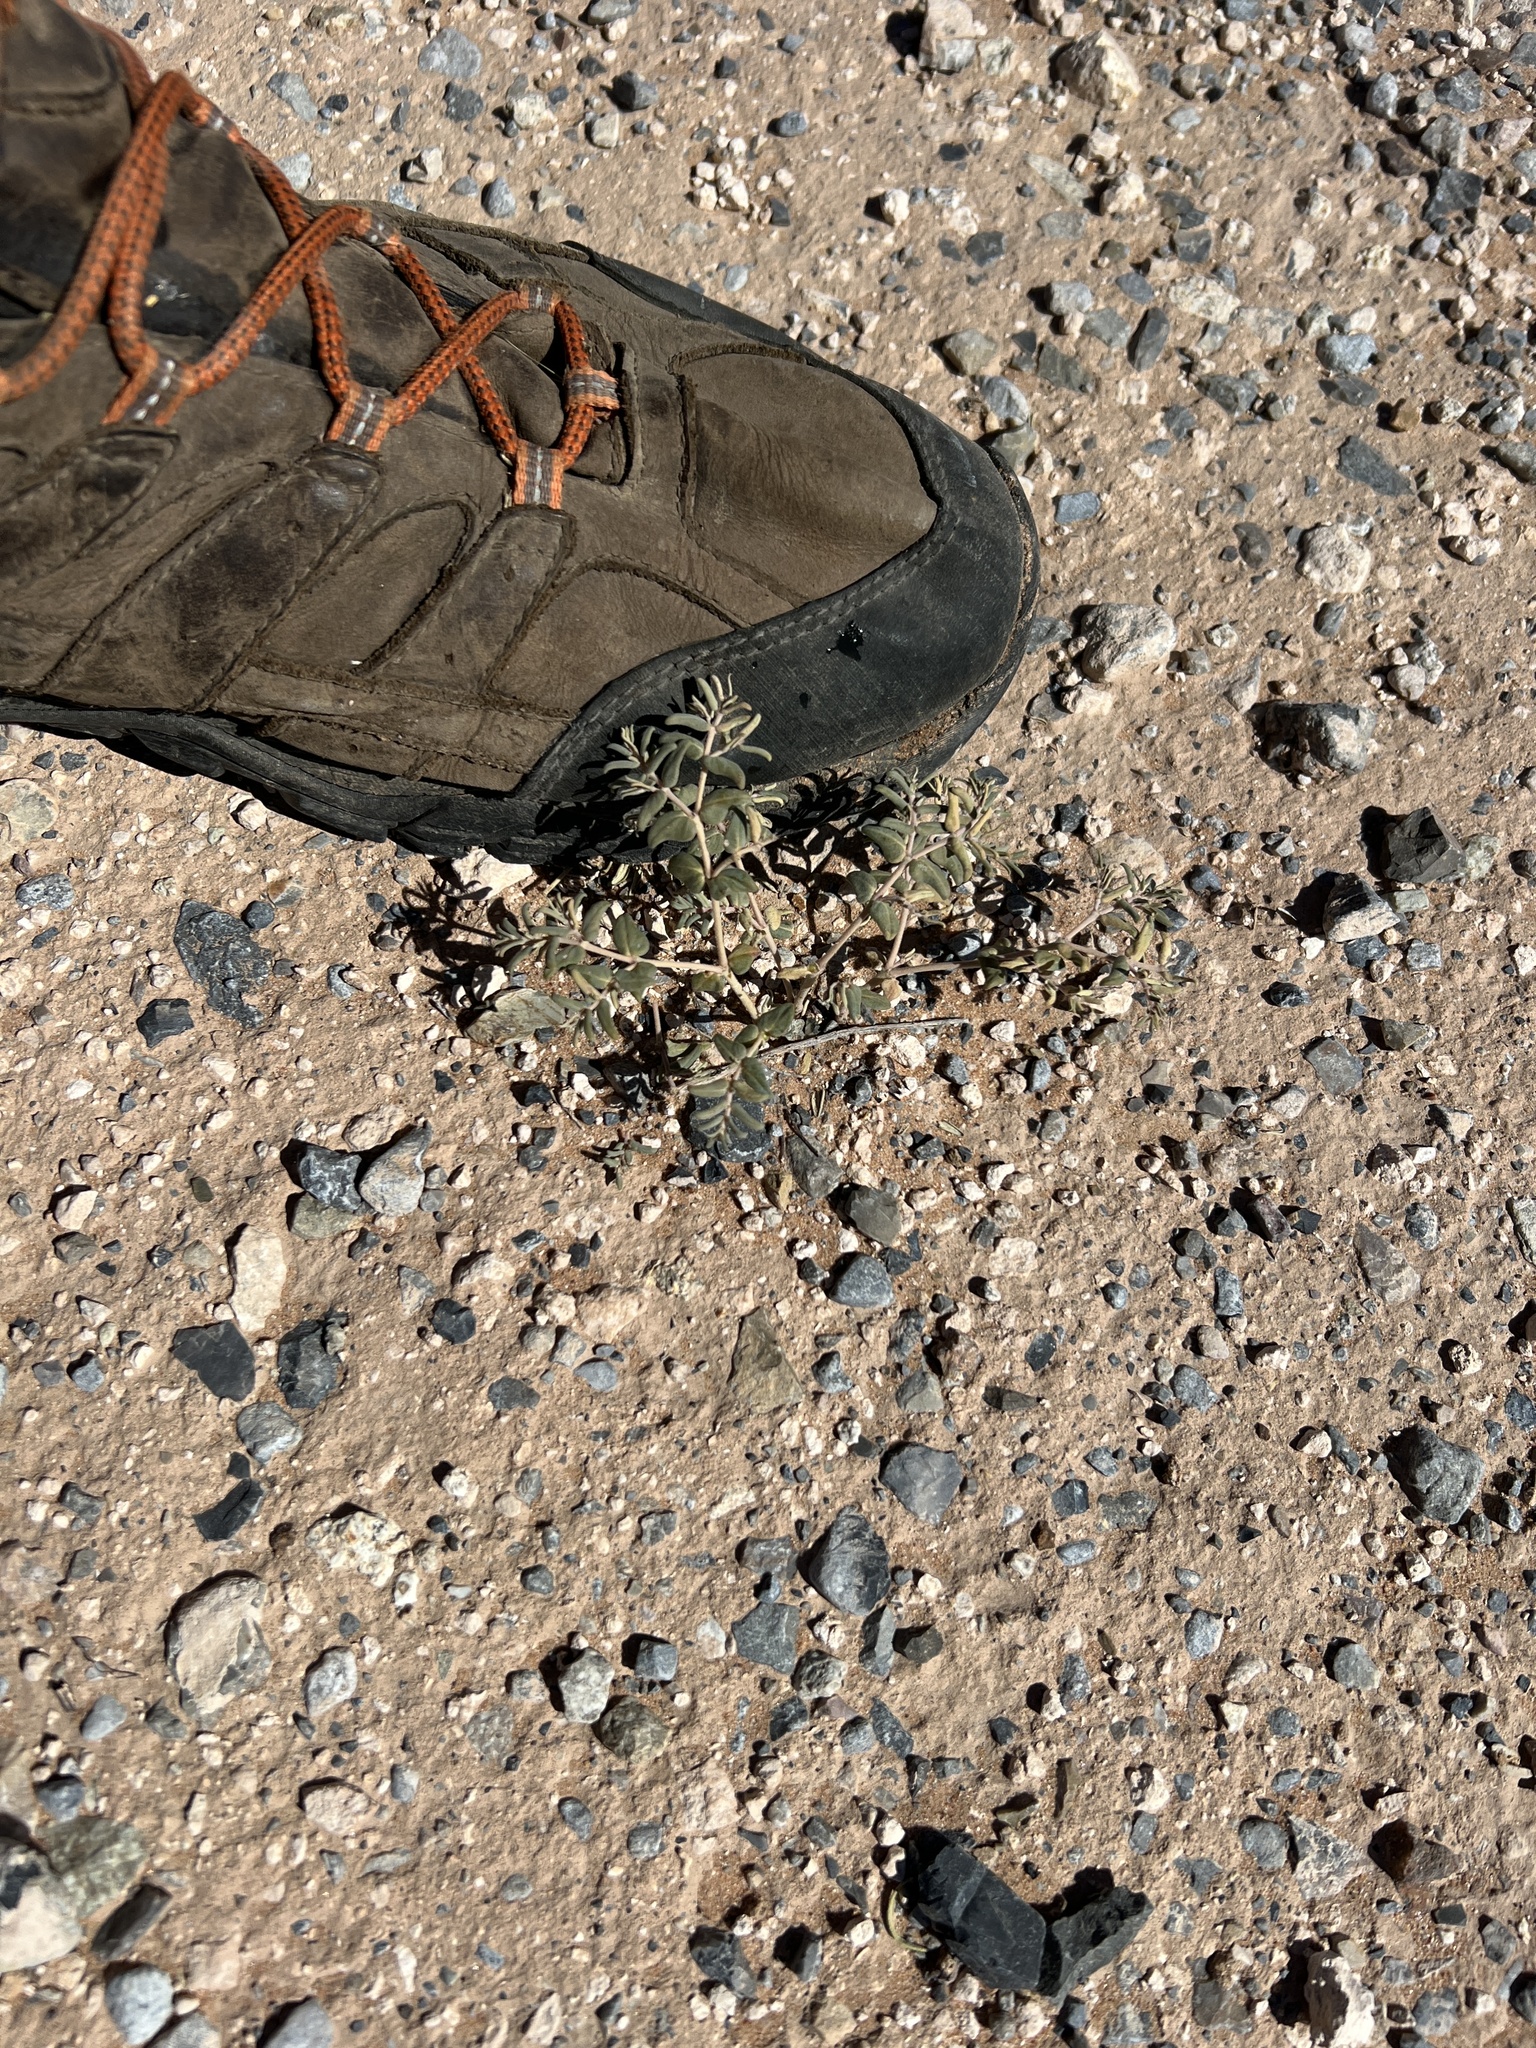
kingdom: Plantae
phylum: Tracheophyta
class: Magnoliopsida
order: Malpighiales
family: Euphorbiaceae
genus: Euphorbia
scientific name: Euphorbia lata
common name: Hoary euphorbia
